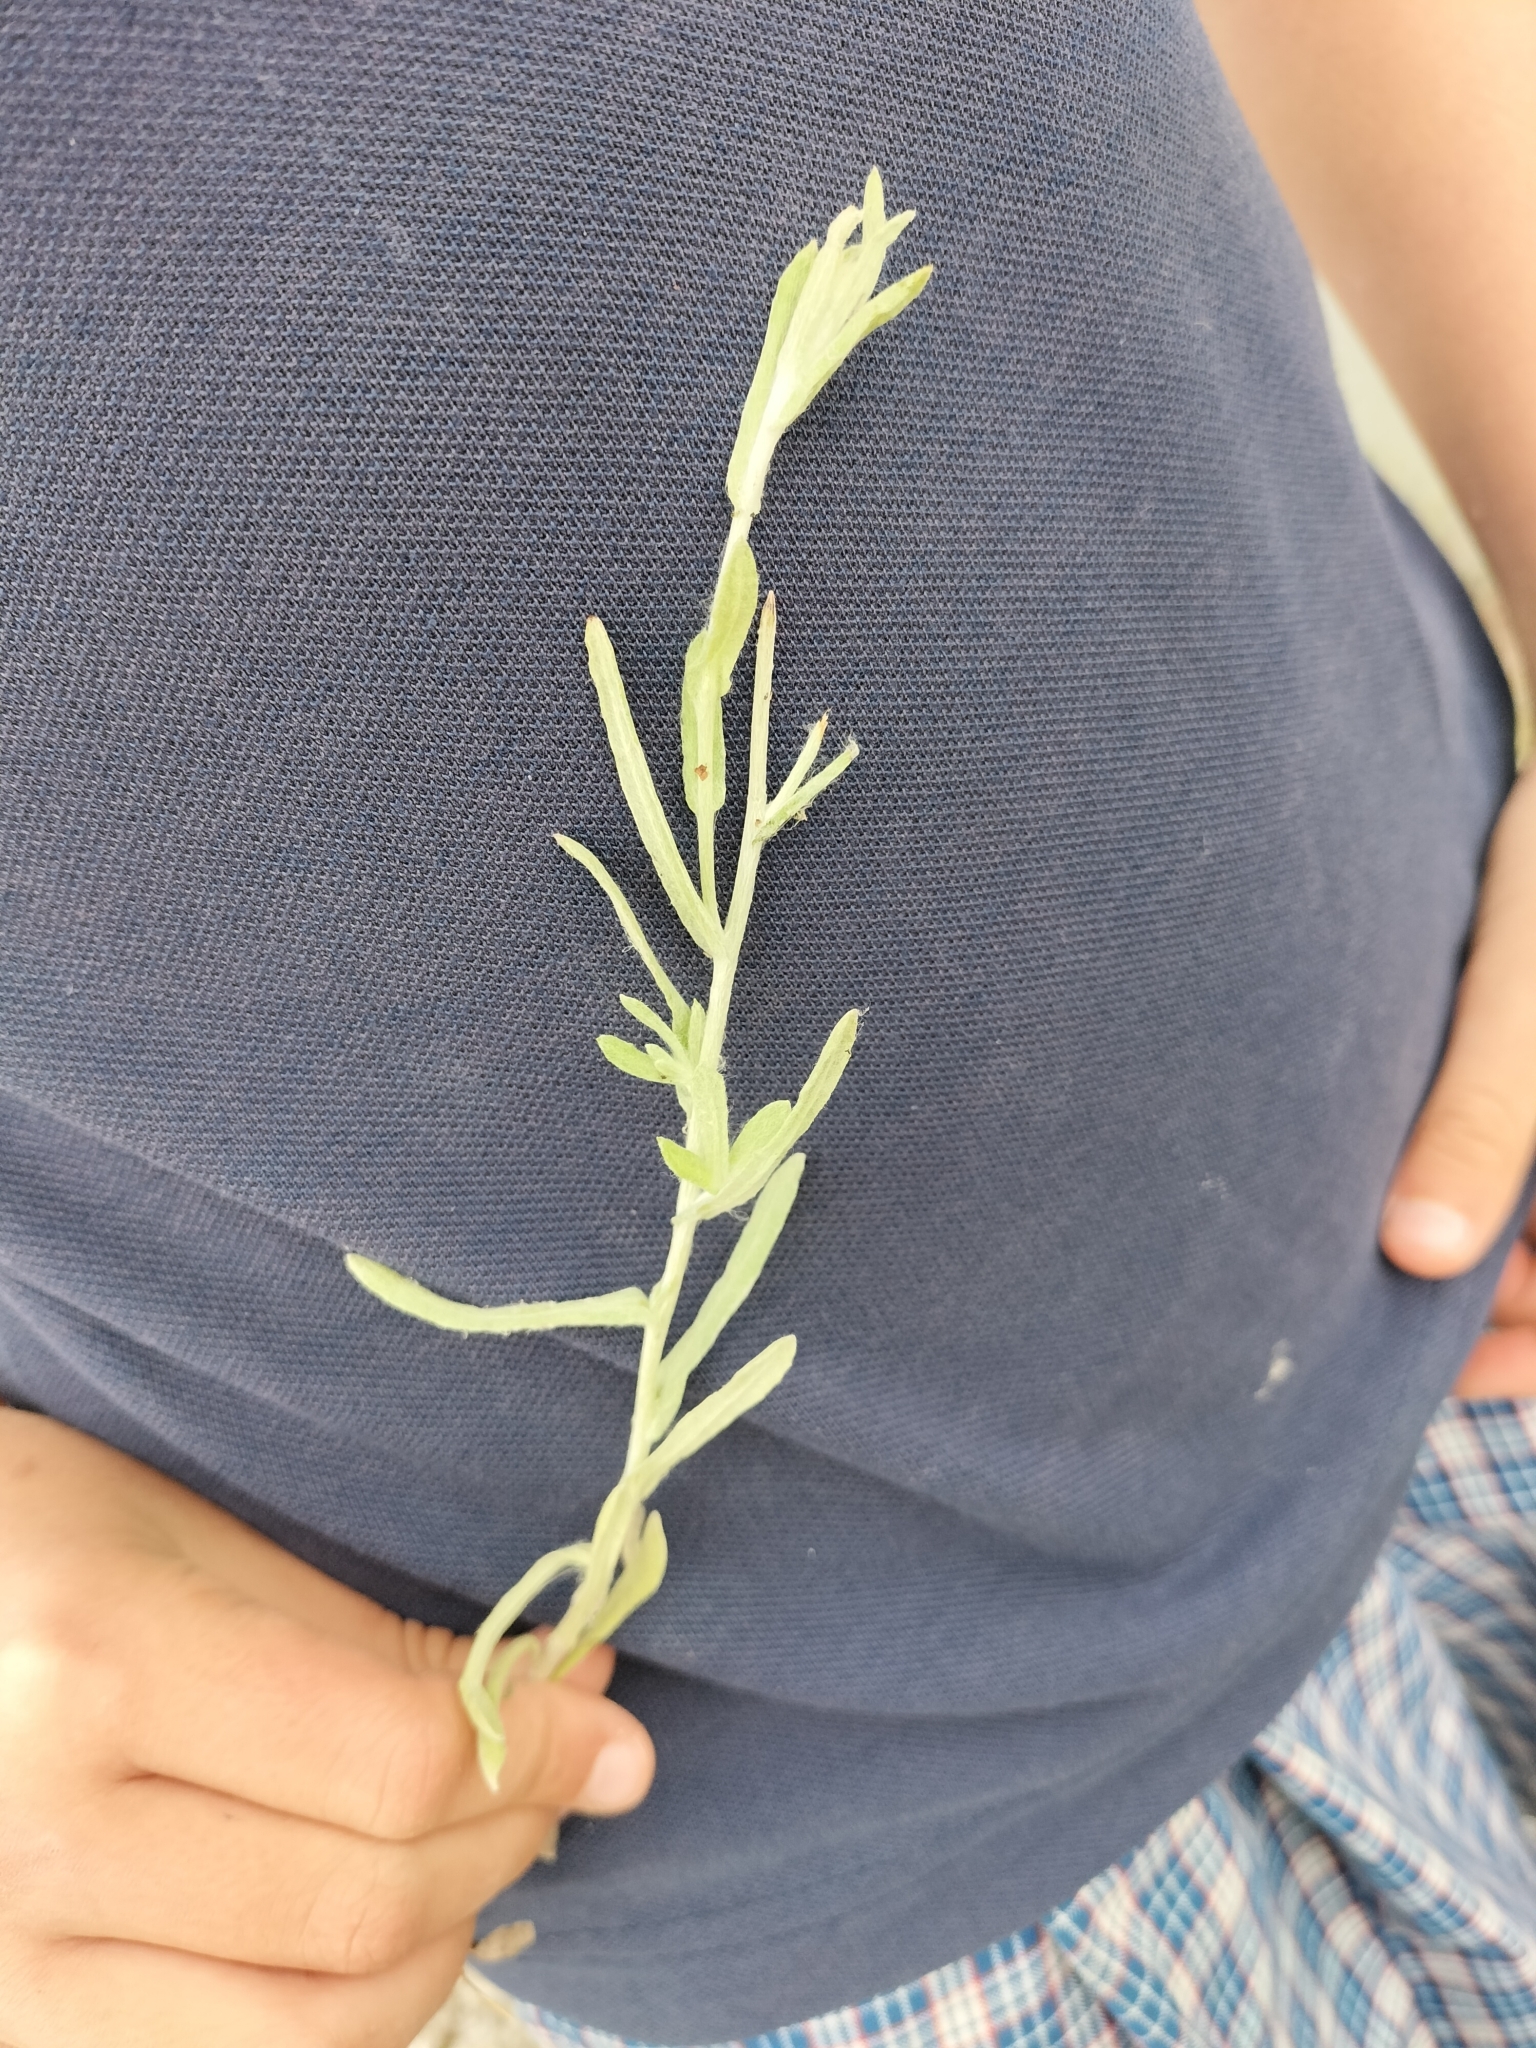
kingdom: Plantae
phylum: Tracheophyta
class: Magnoliopsida
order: Asterales
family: Asteraceae
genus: Helichrysum
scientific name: Helichrysum luteoalbum
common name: Daisy
